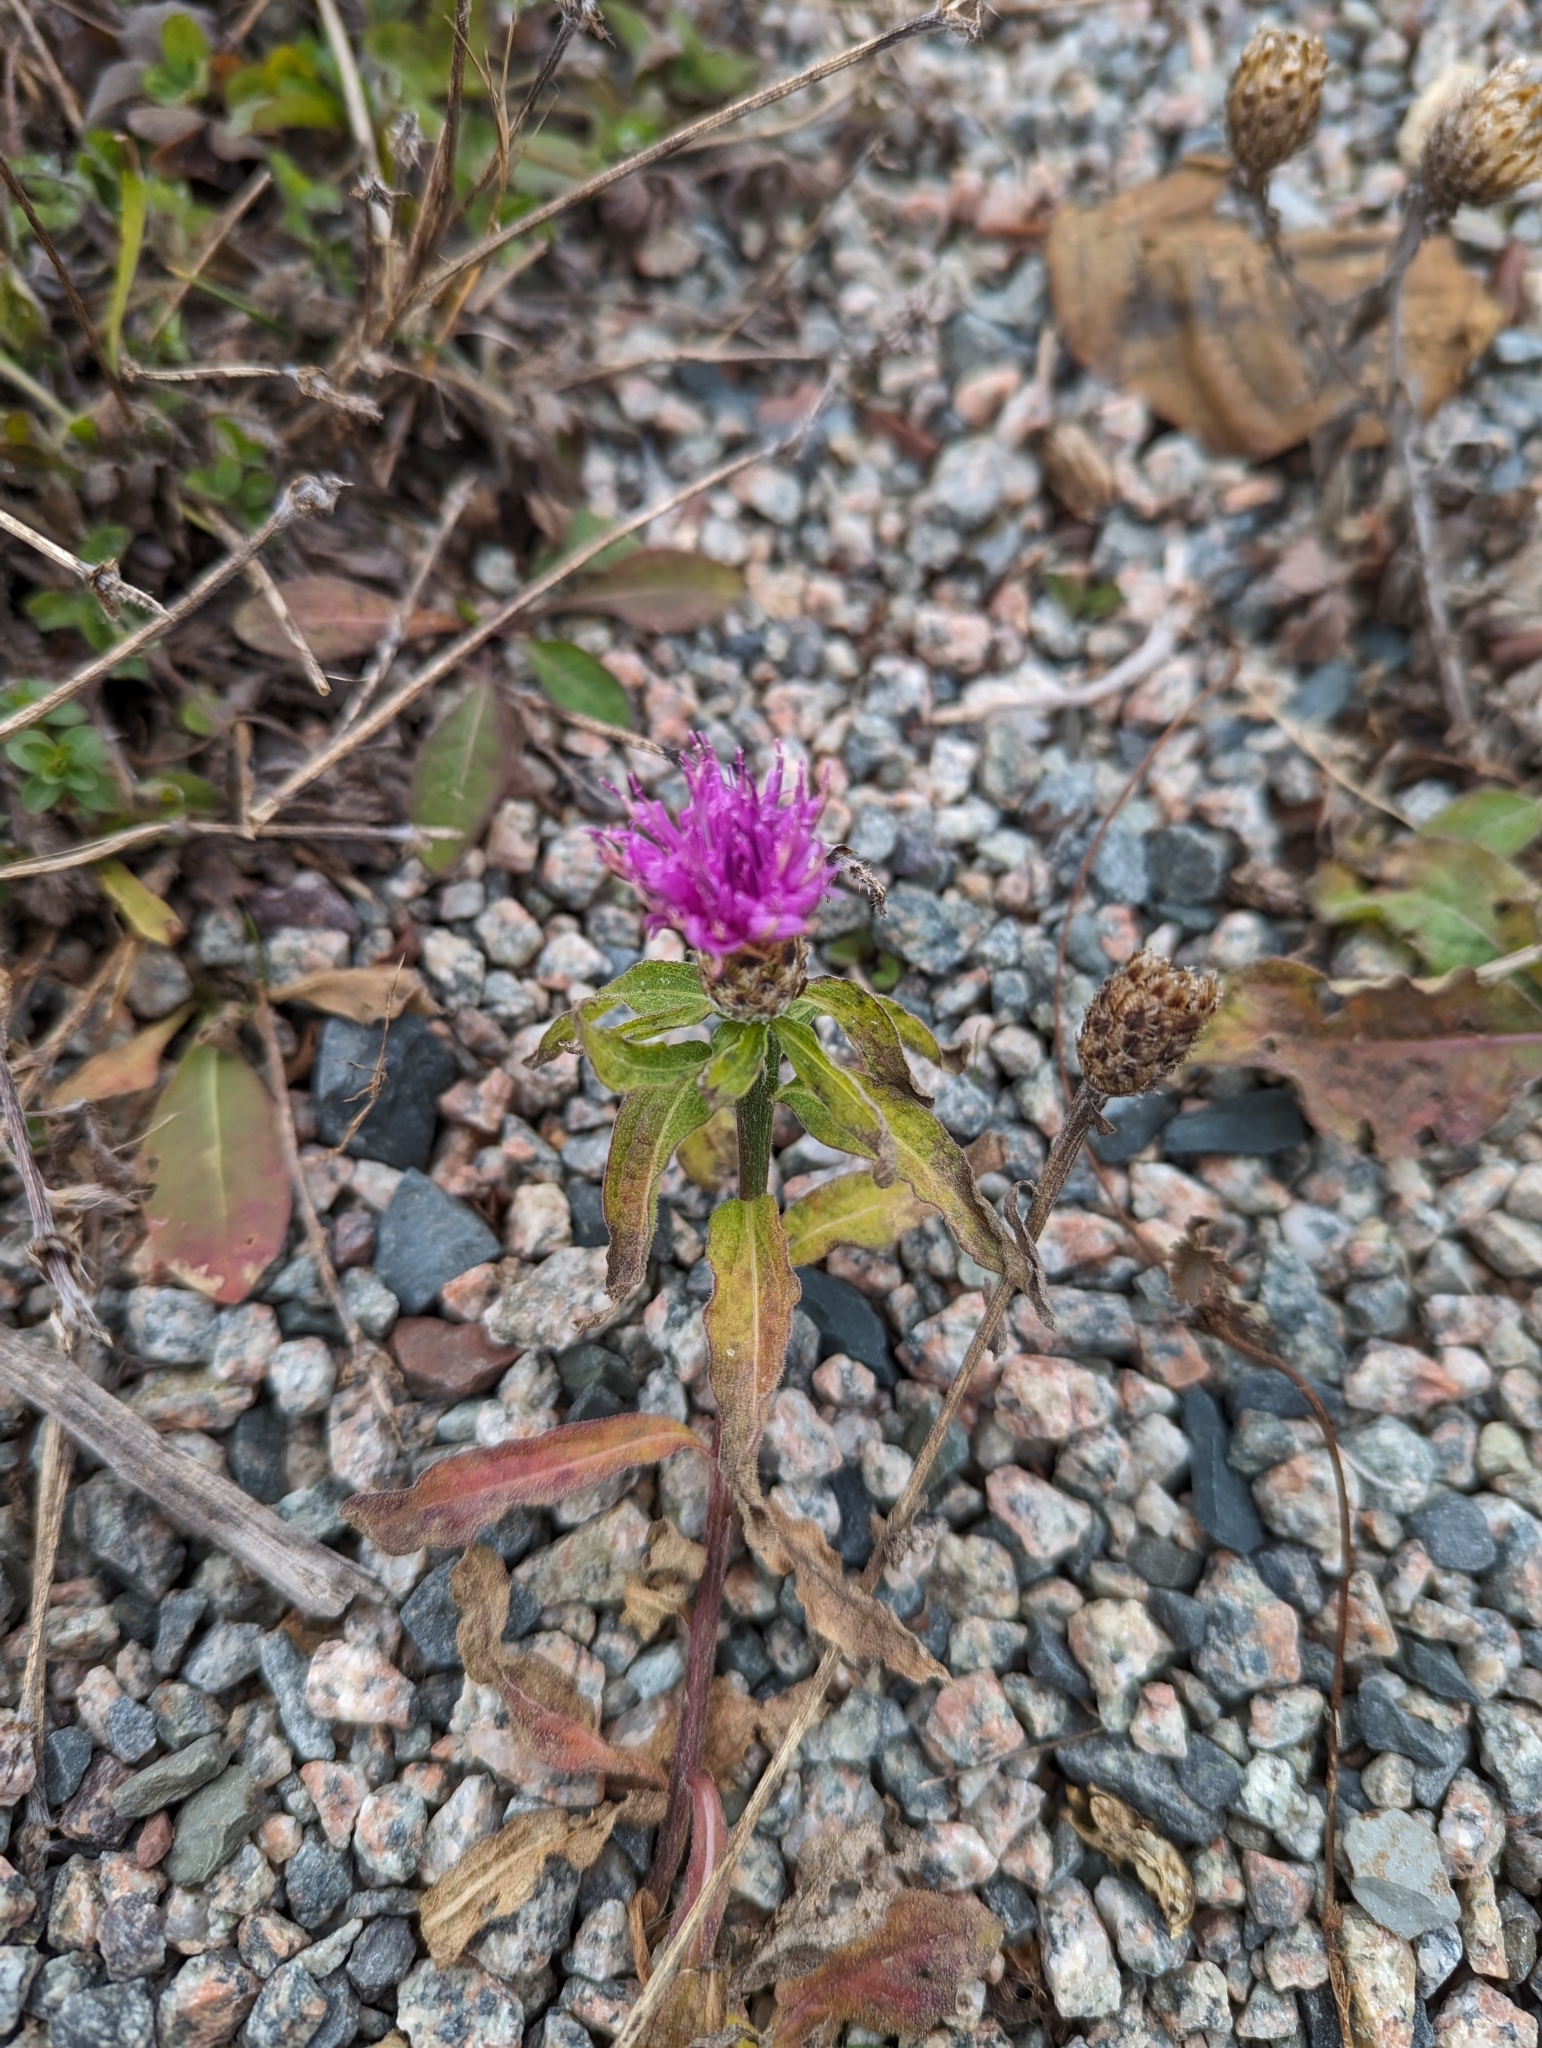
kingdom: Plantae
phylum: Tracheophyta
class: Magnoliopsida
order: Asterales
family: Asteraceae
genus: Centaurea
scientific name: Centaurea nigra
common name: Lesser knapweed
